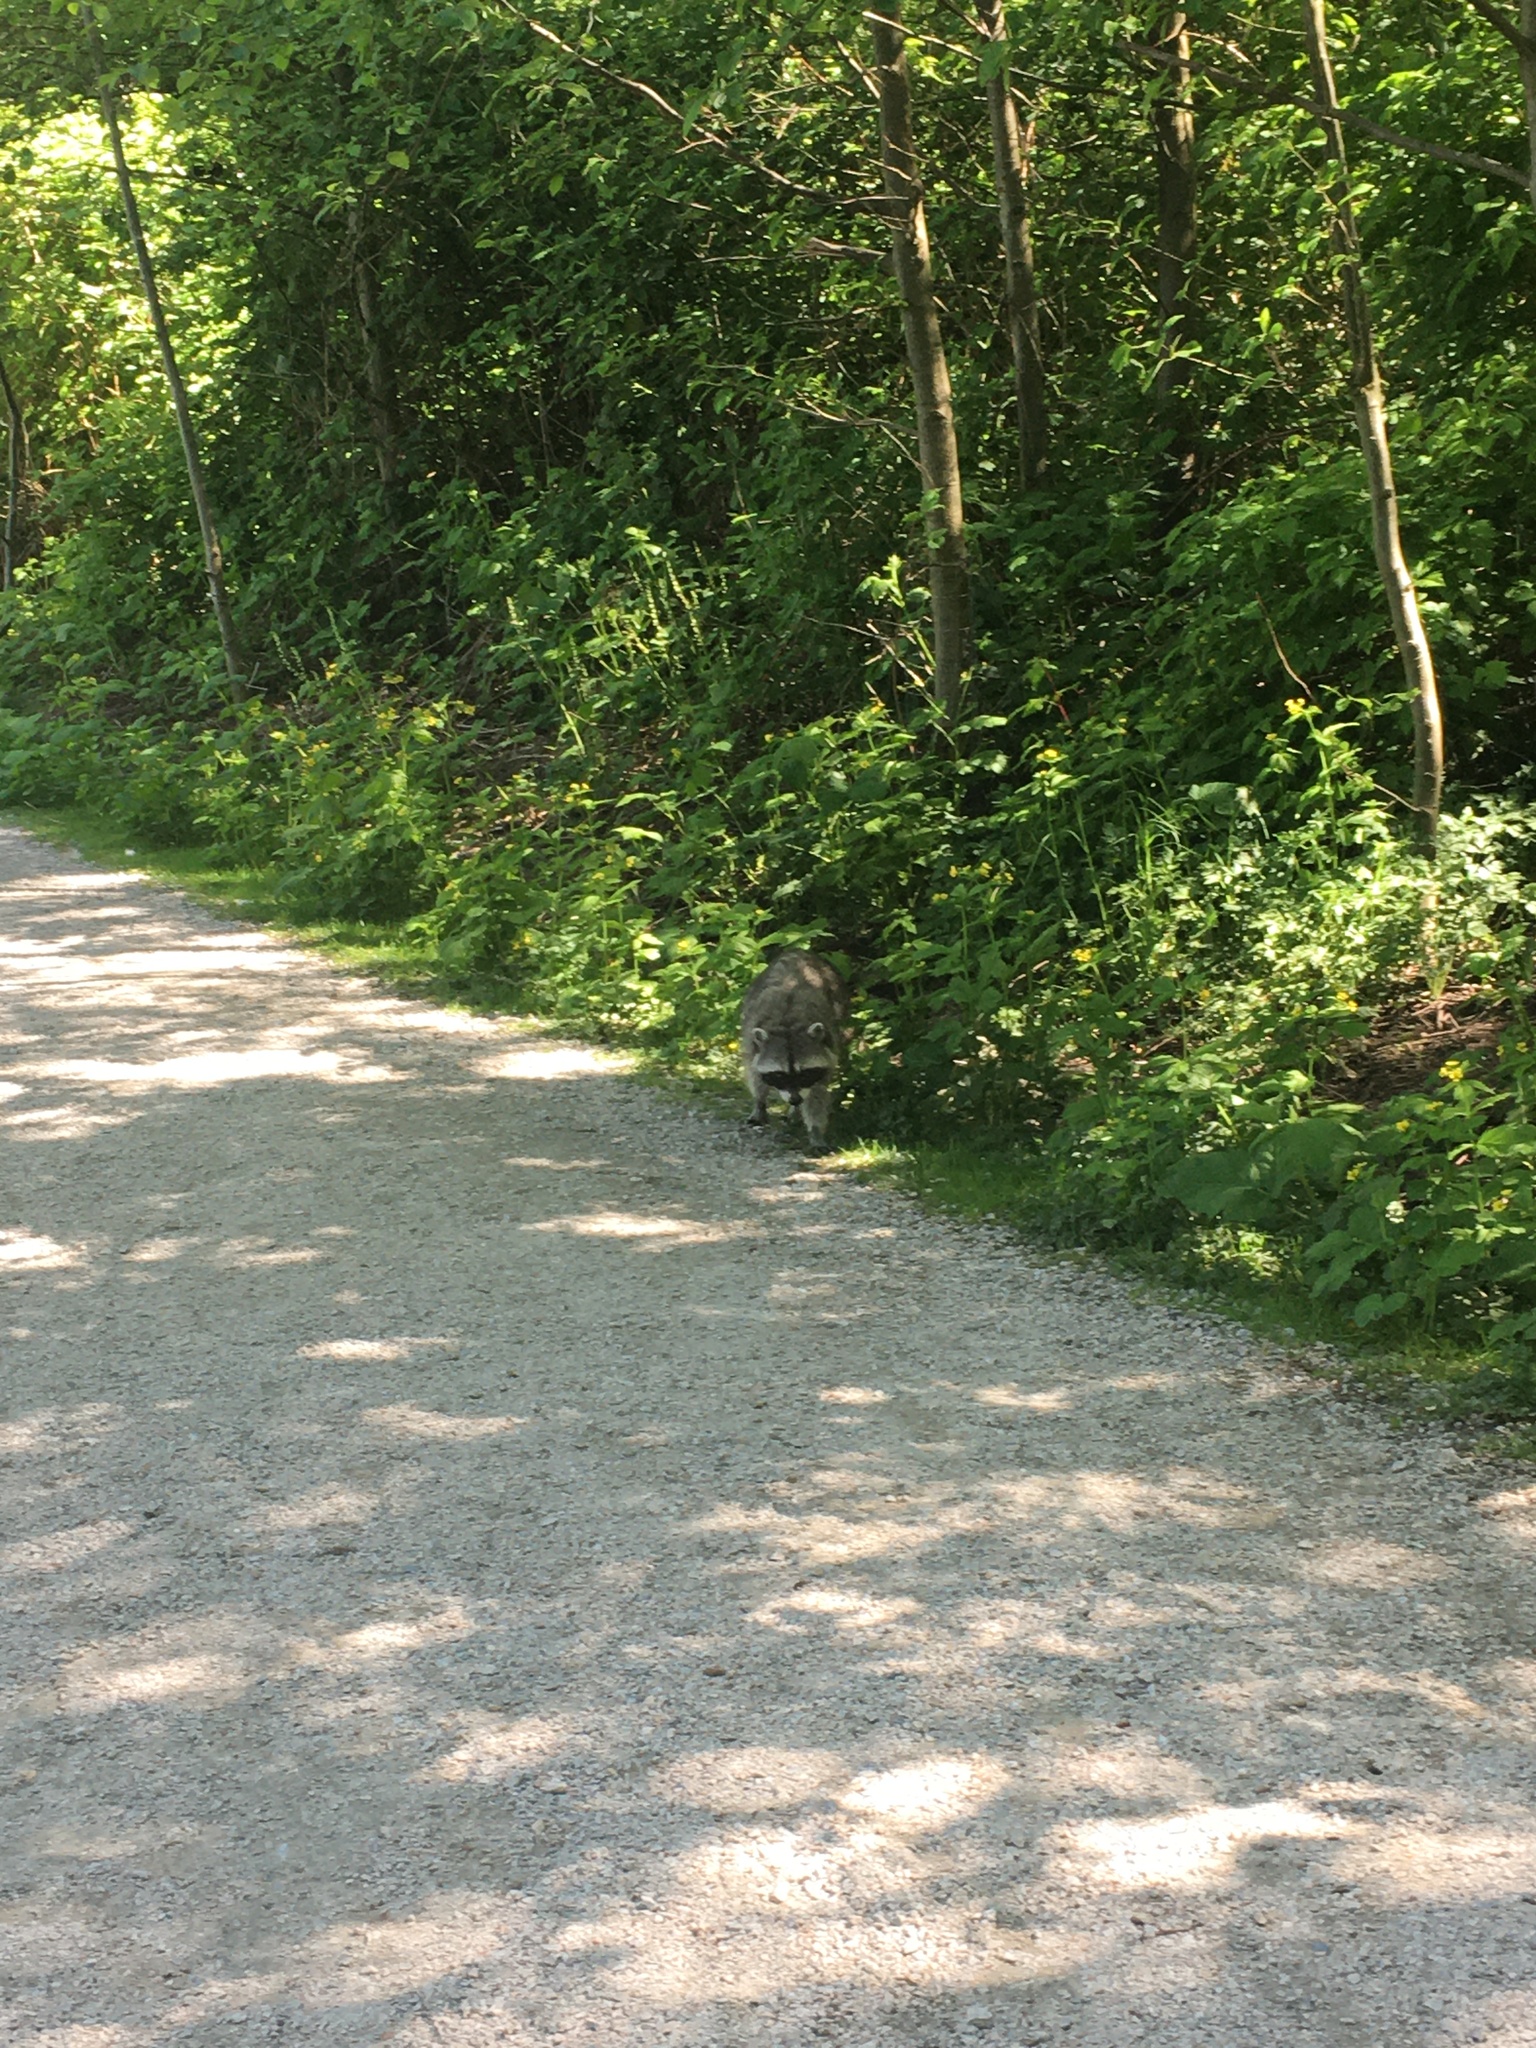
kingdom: Animalia
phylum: Chordata
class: Mammalia
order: Carnivora
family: Procyonidae
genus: Procyon
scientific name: Procyon lotor
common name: Raccoon
